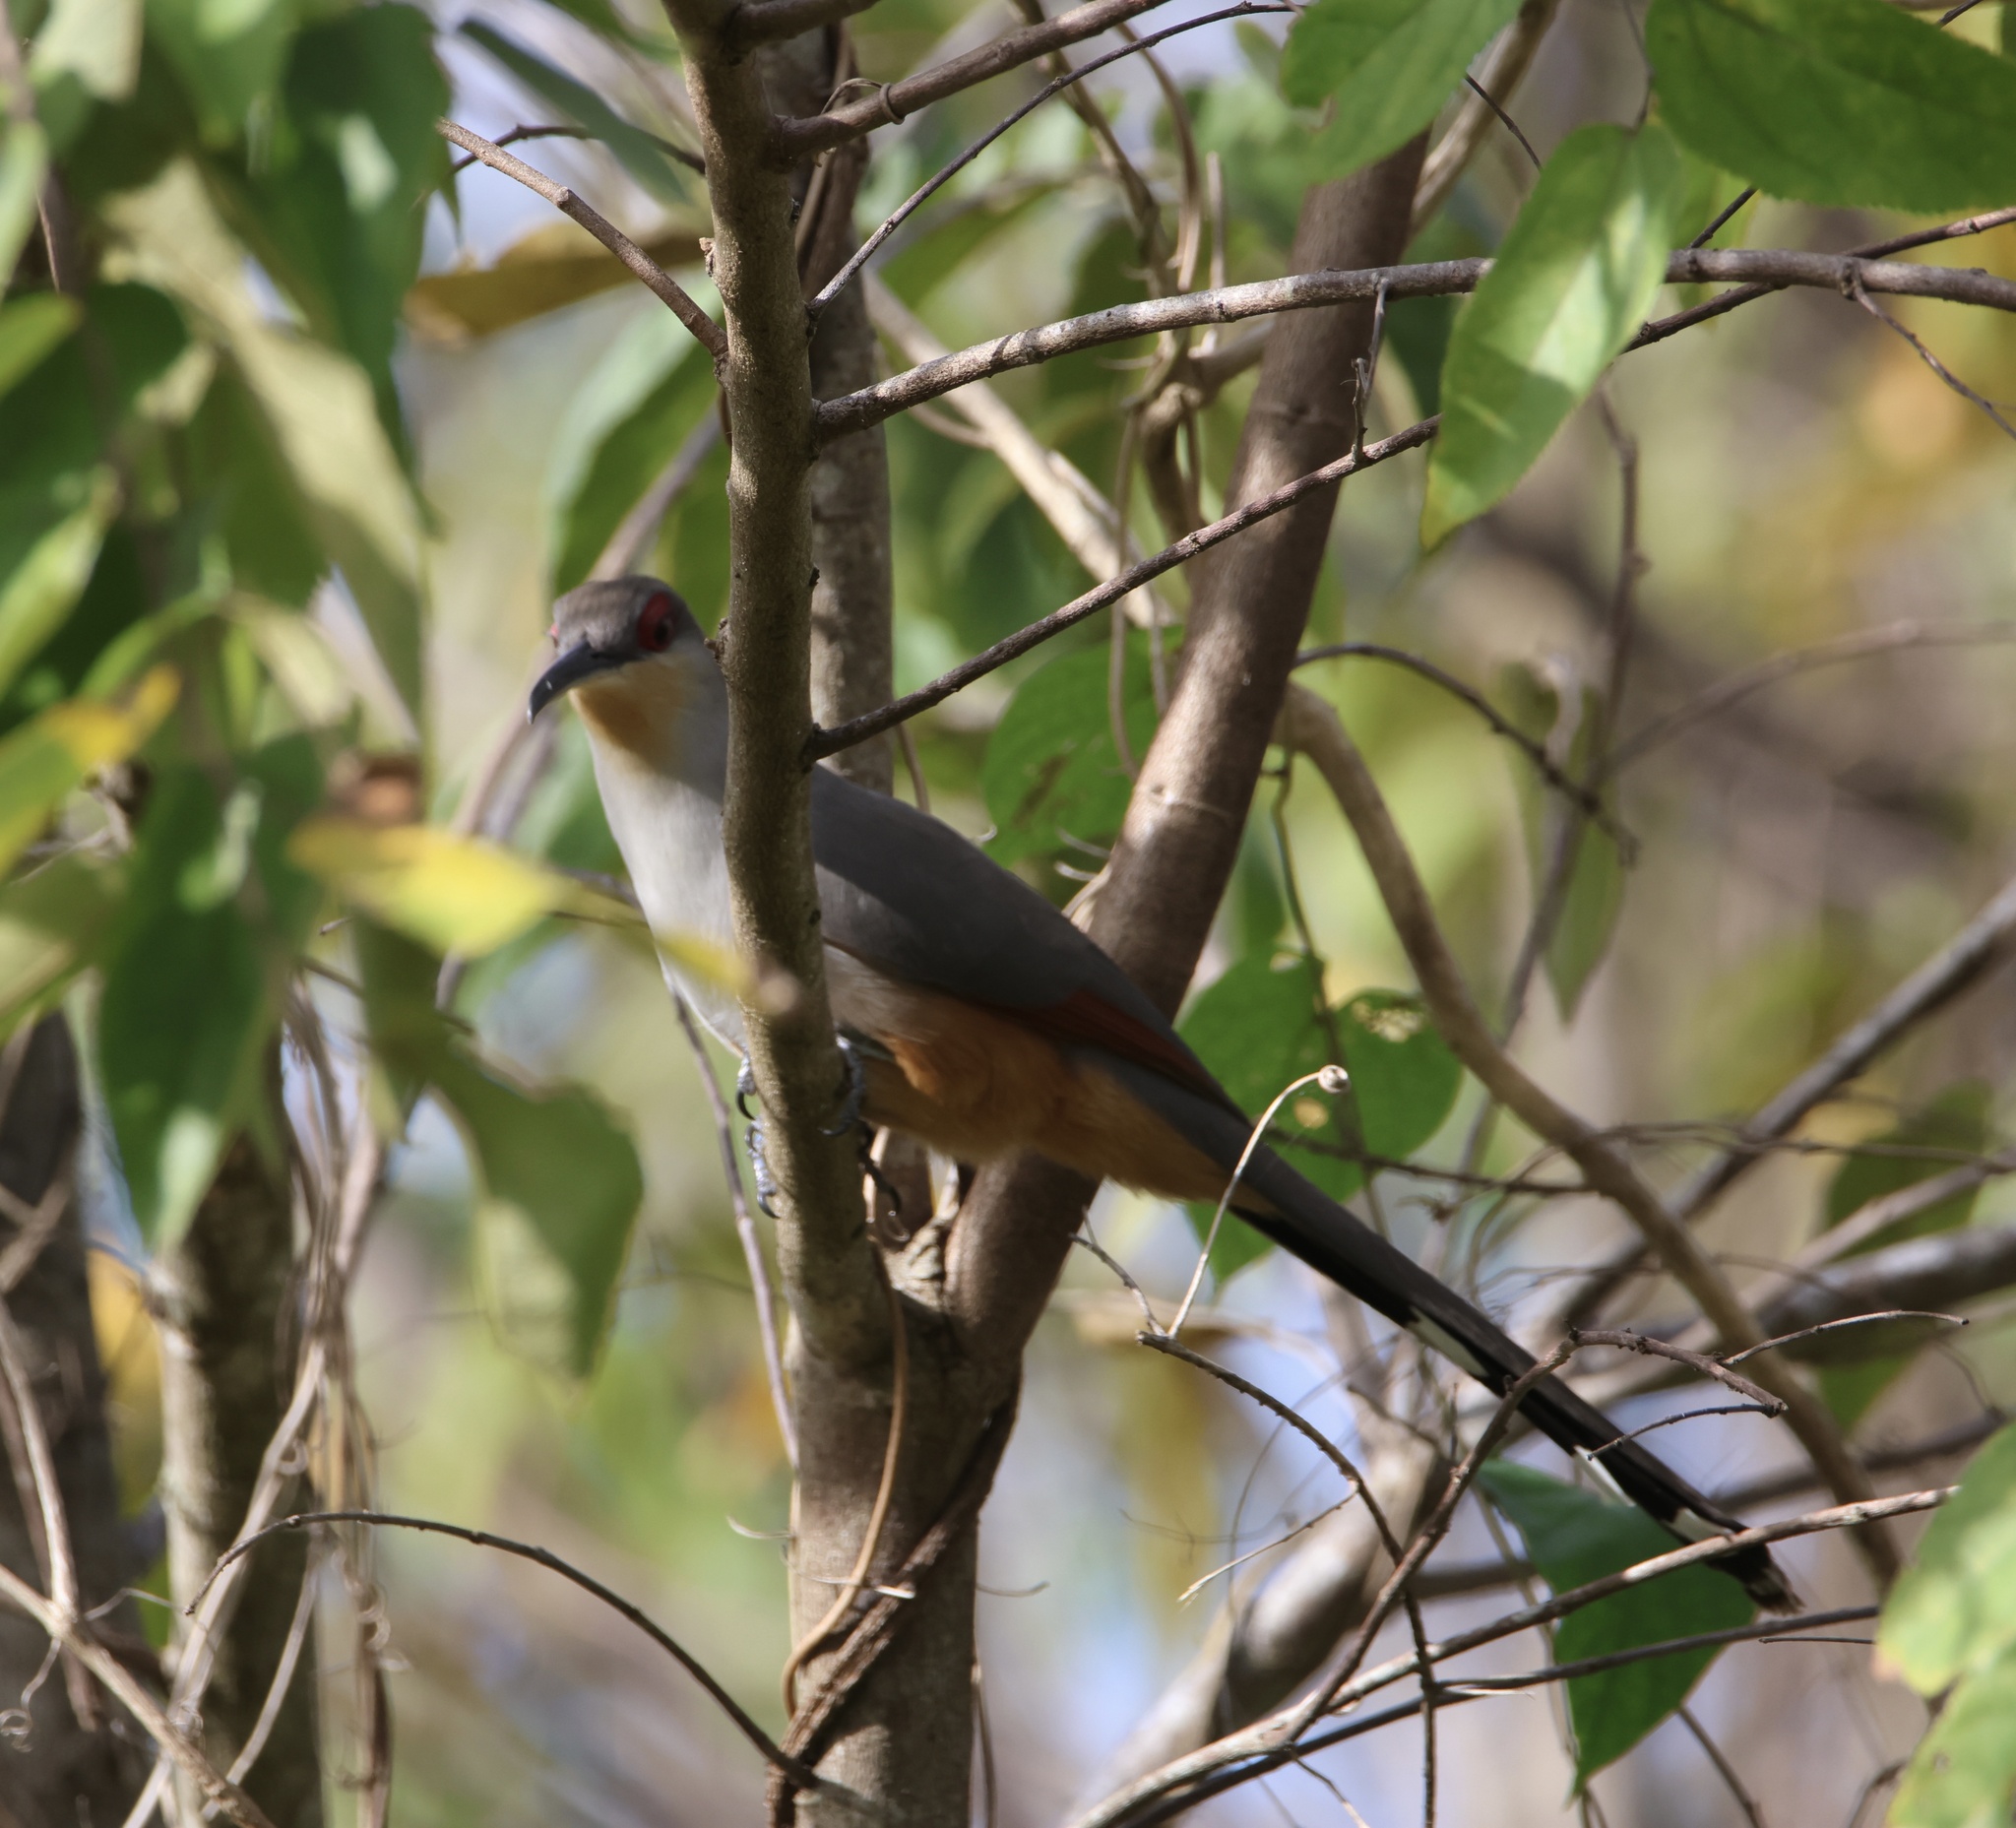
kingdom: Animalia
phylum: Chordata
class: Aves
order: Cuculiformes
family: Cuculidae
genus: Saurothera
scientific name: Saurothera longirostris
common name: Hispaniolan lizard-cuckoo
